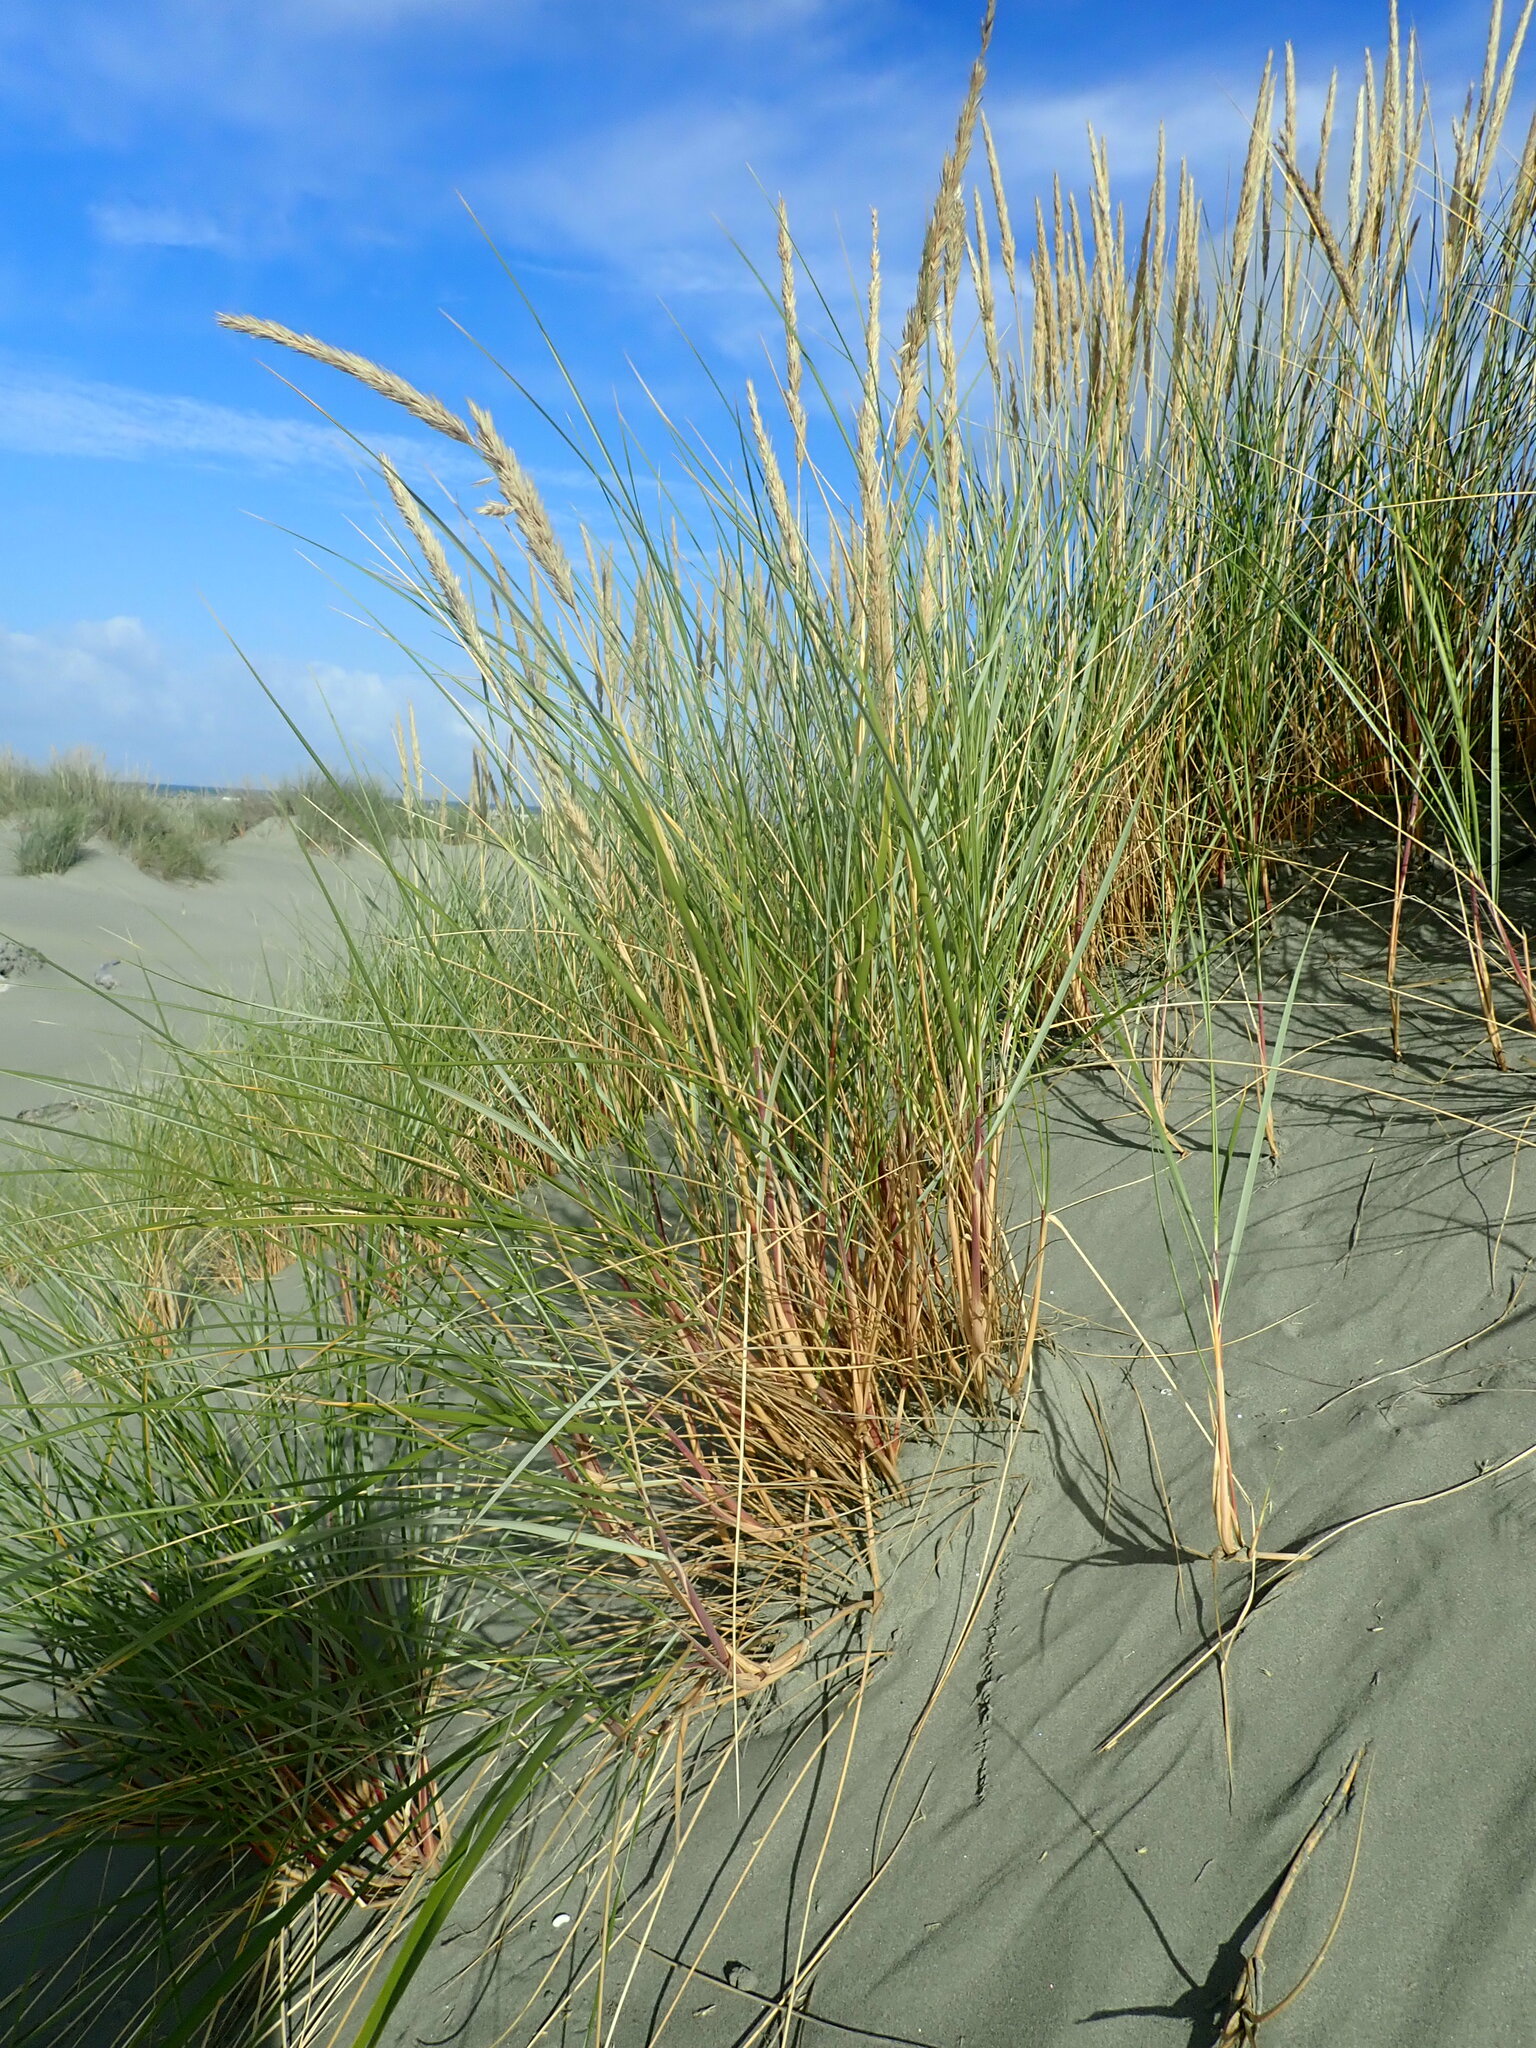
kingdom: Plantae
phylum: Tracheophyta
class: Liliopsida
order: Poales
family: Poaceae
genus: Calamagrostis
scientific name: Calamagrostis arenaria
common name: European beachgrass
